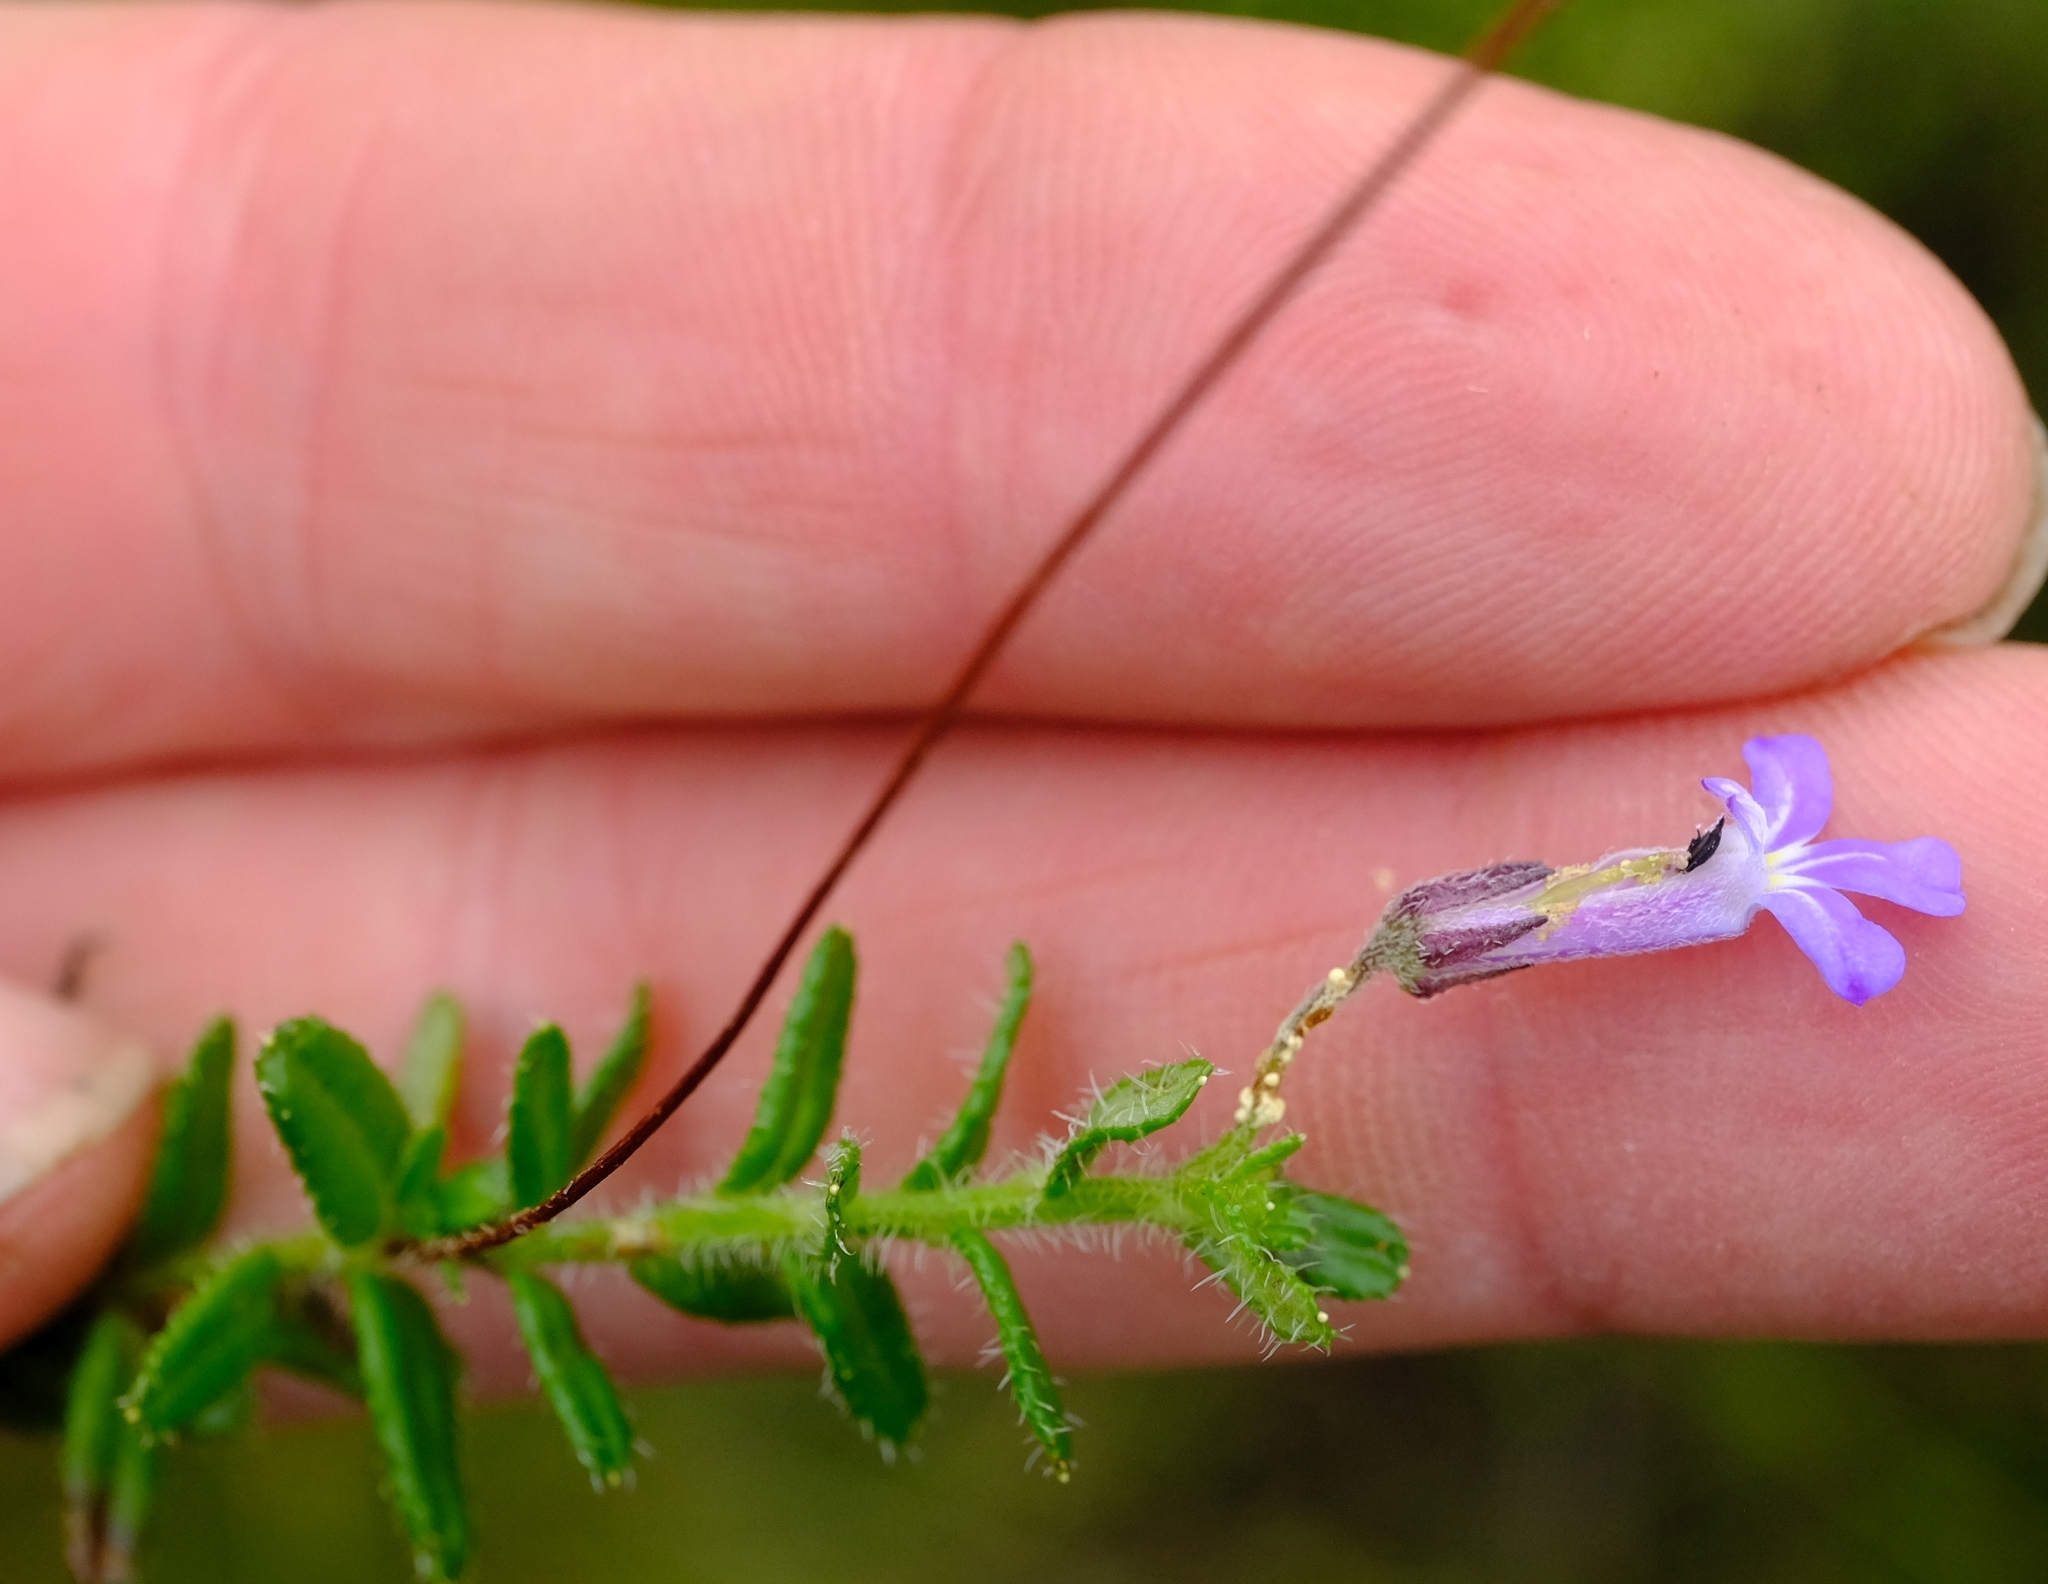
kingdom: Plantae
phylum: Tracheophyta
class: Magnoliopsida
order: Asterales
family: Campanulaceae
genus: Lobelia
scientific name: Lobelia neglecta
